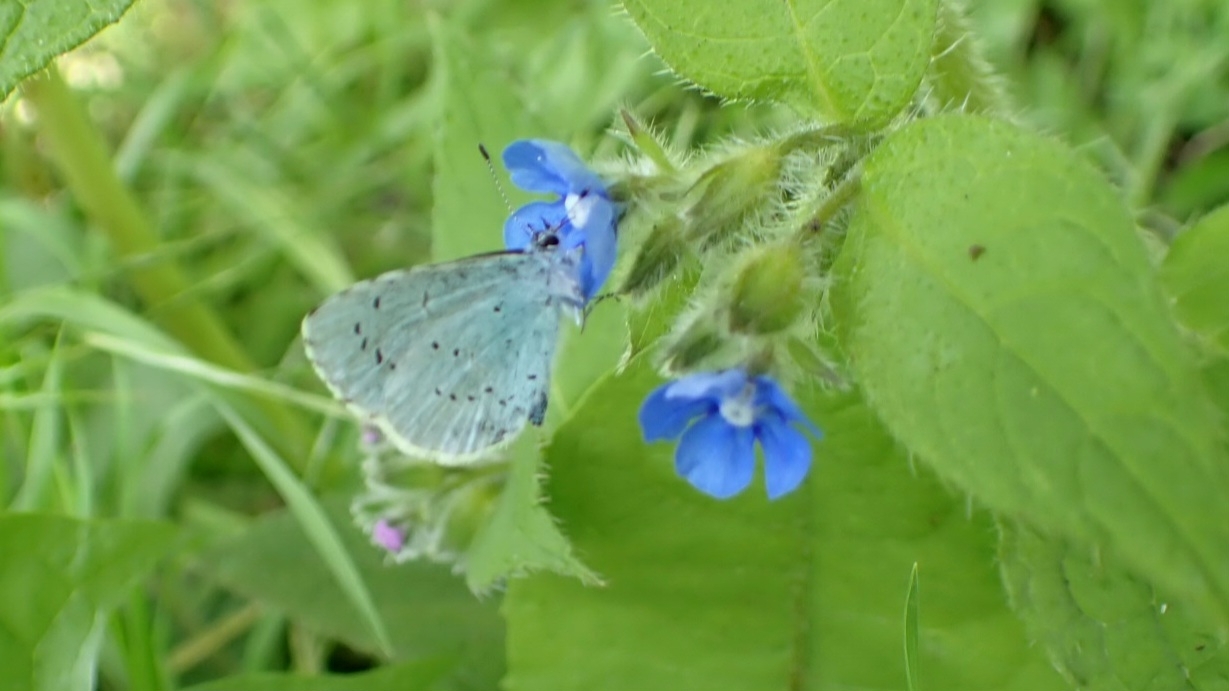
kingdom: Animalia
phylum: Arthropoda
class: Insecta
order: Lepidoptera
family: Lycaenidae
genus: Celastrina
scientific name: Celastrina argiolus
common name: Holly blue
